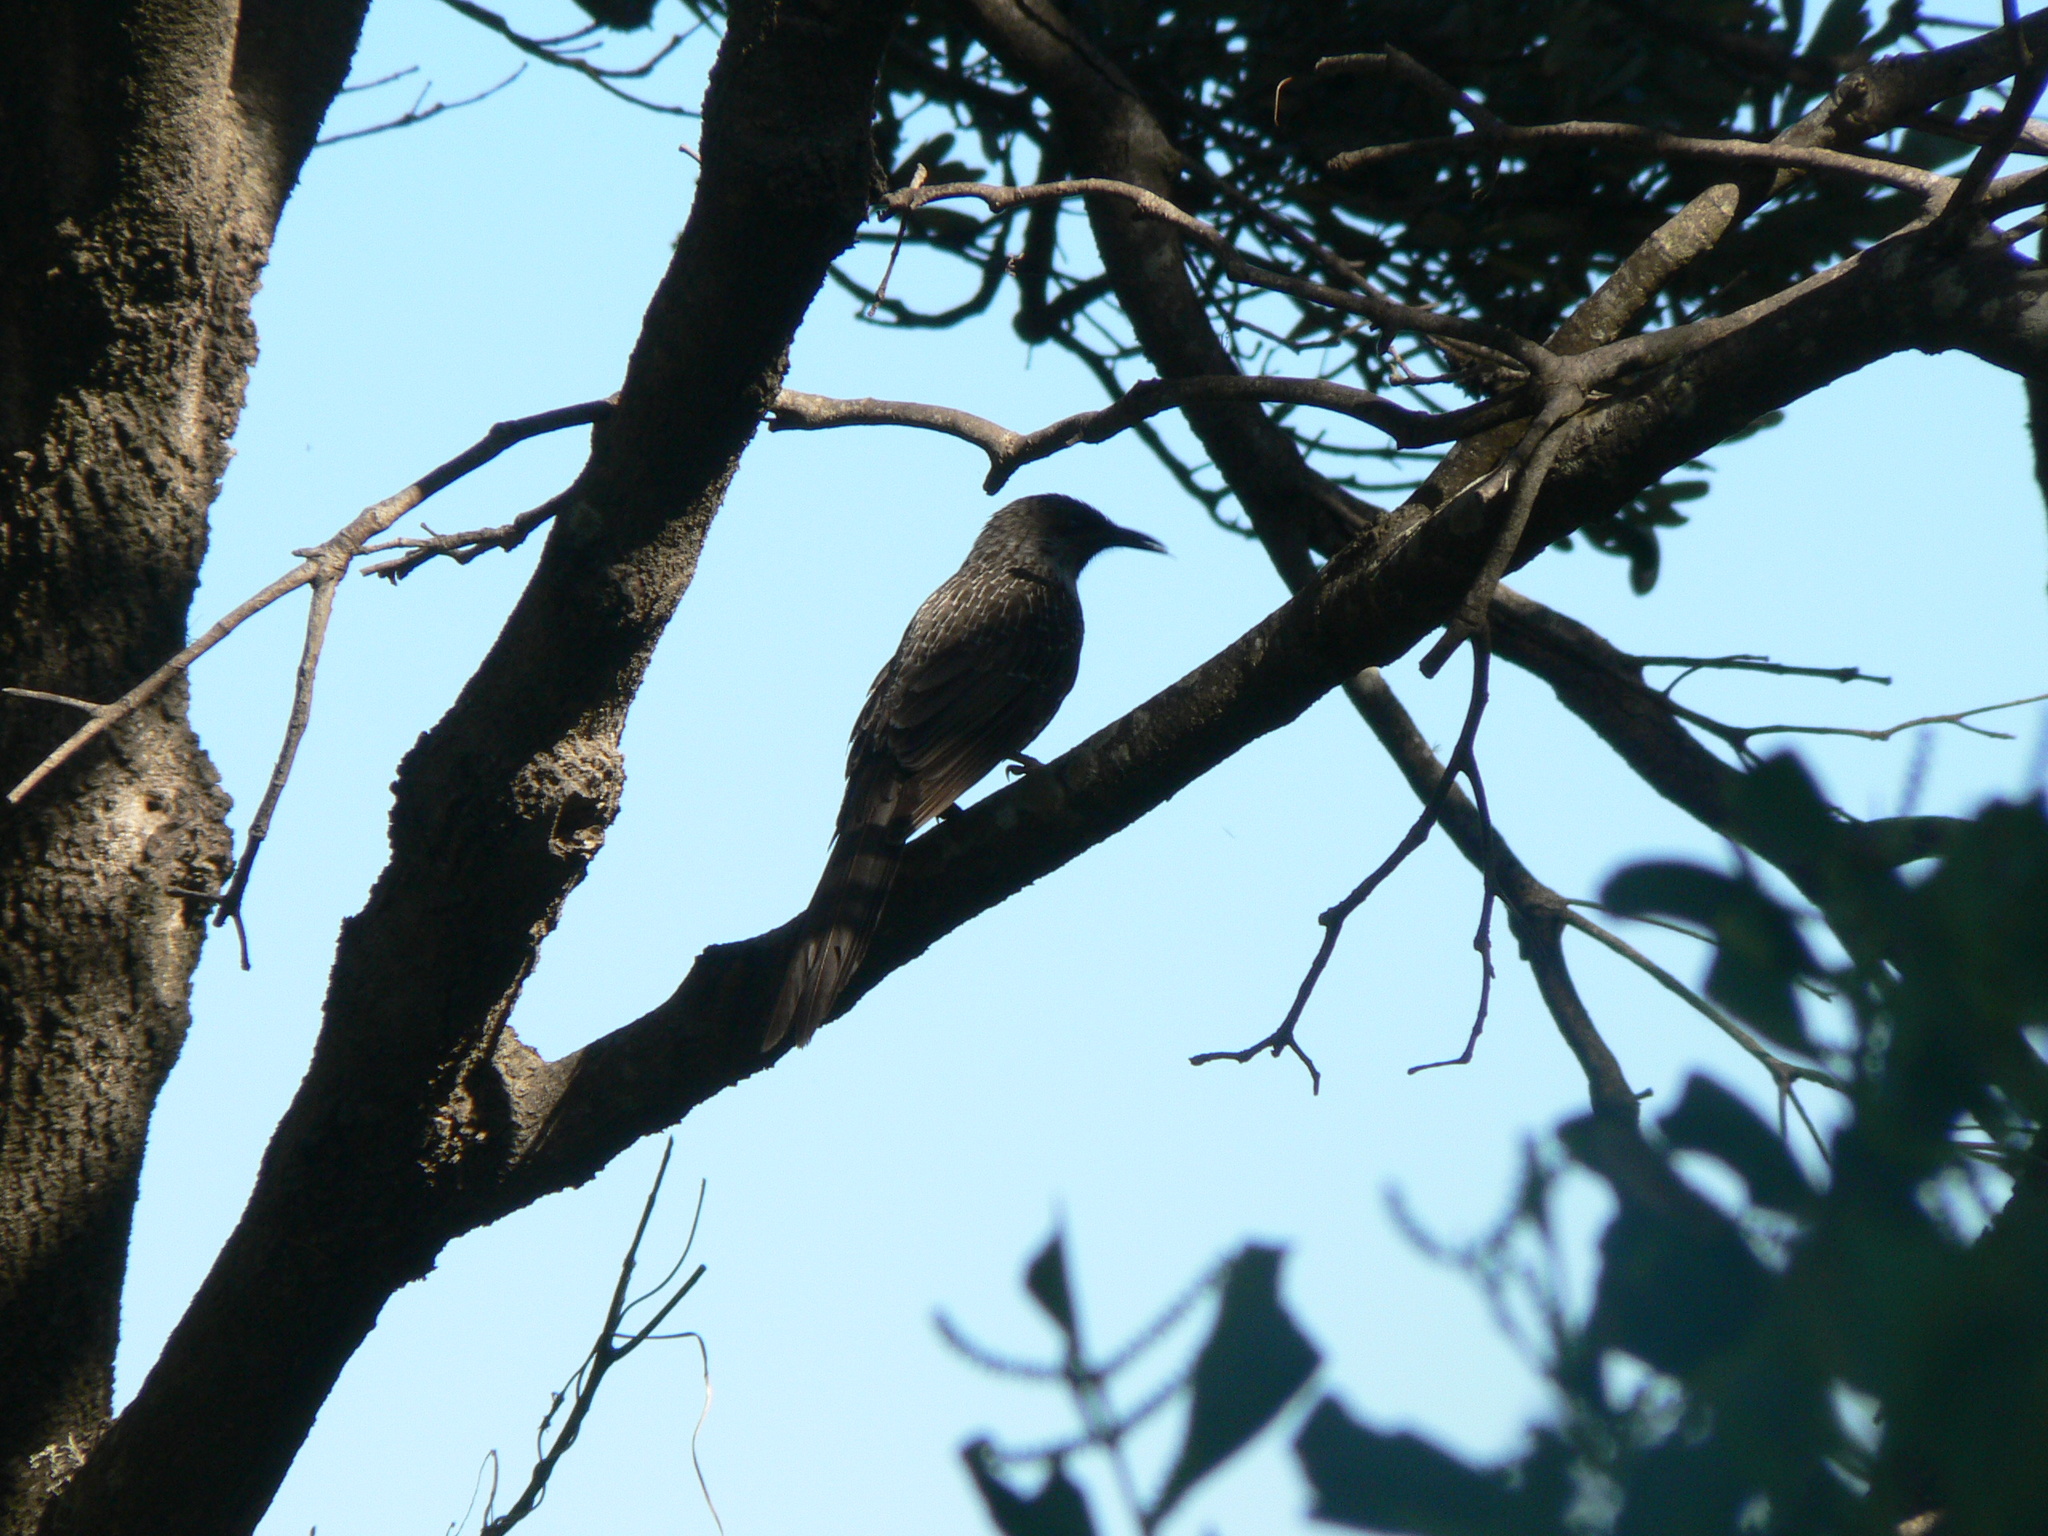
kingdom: Animalia
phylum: Chordata
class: Aves
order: Passeriformes
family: Meliphagidae
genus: Anthochaera
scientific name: Anthochaera chrysoptera
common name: Little wattlebird
